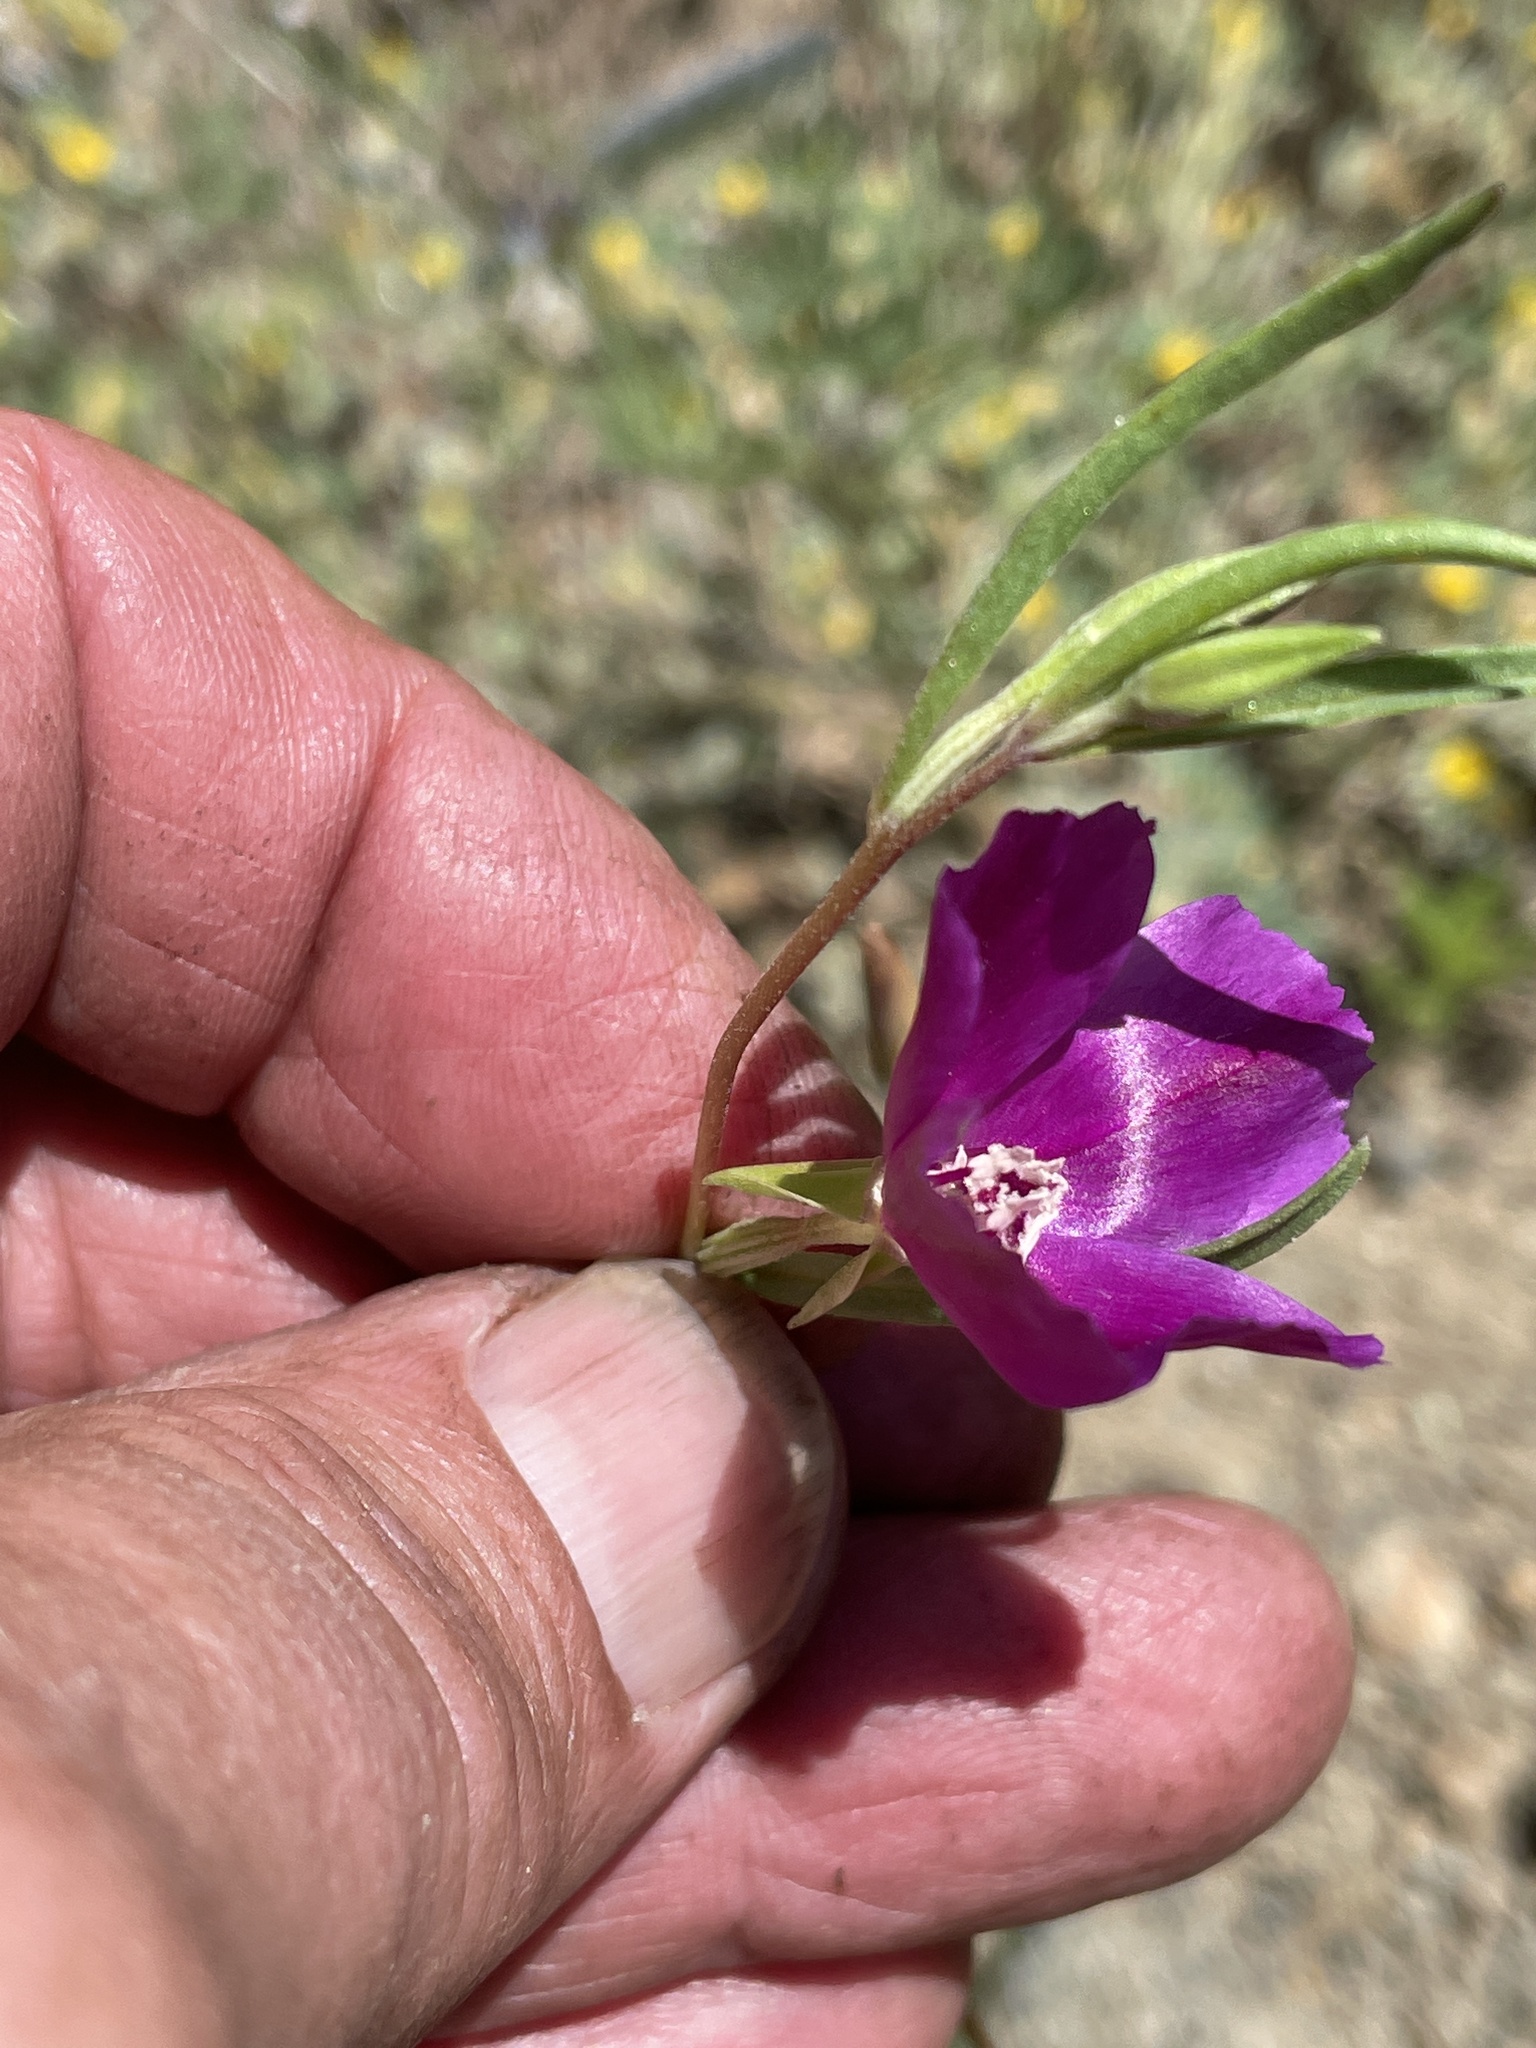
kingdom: Plantae
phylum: Tracheophyta
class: Magnoliopsida
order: Myrtales
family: Onagraceae
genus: Clarkia
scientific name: Clarkia purpurea
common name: Purple clarkia
